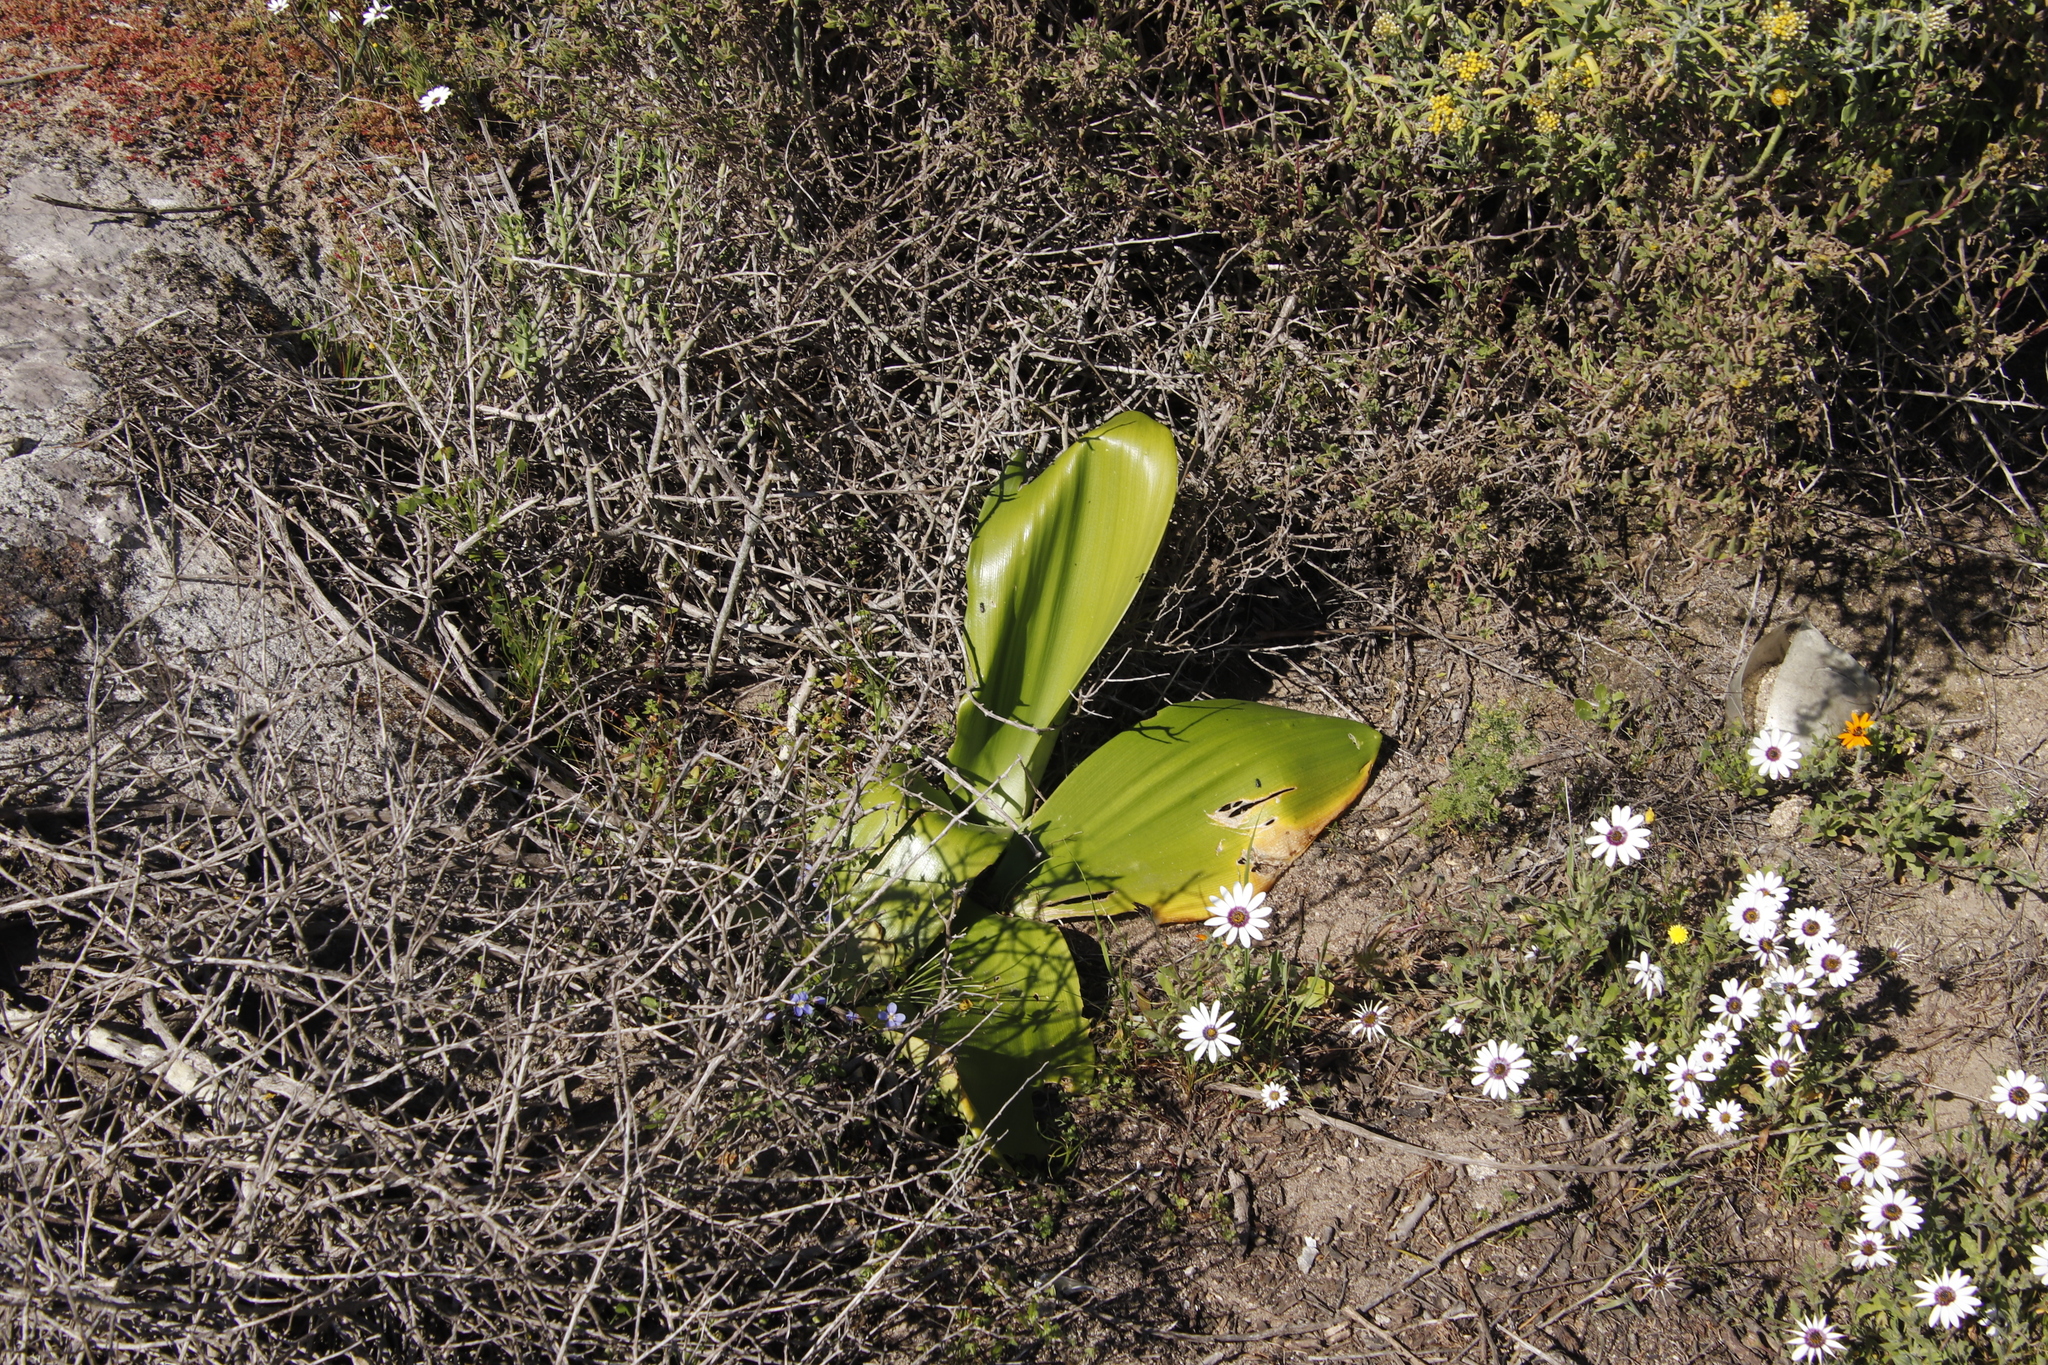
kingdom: Plantae
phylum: Tracheophyta
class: Liliopsida
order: Asparagales
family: Amaryllidaceae
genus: Haemanthus
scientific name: Haemanthus coccineus
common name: Cape-tulip
